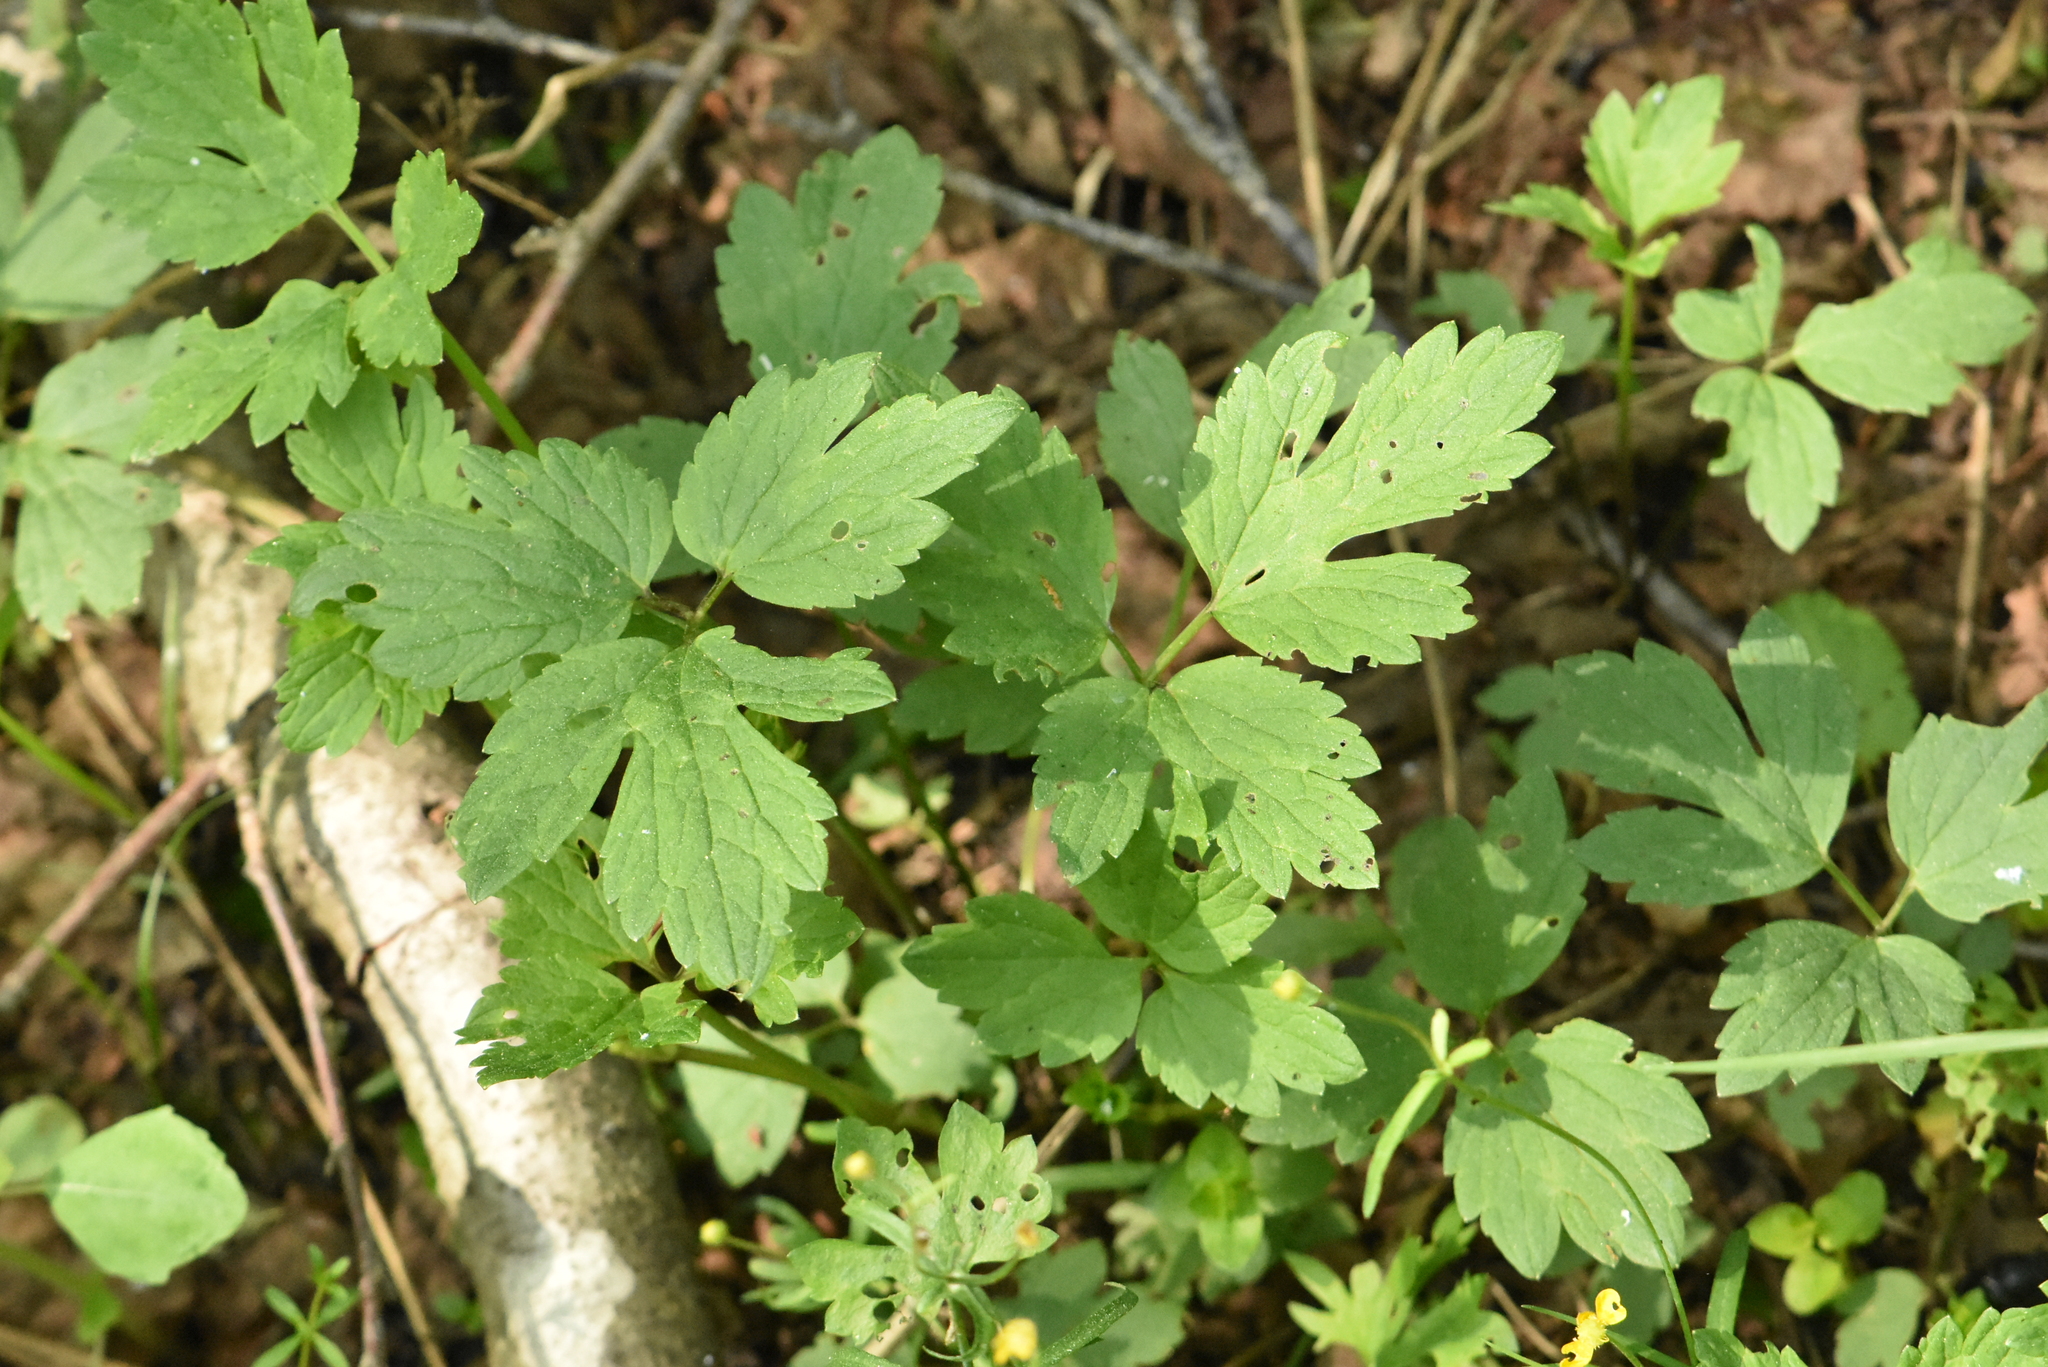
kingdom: Plantae
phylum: Tracheophyta
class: Magnoliopsida
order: Ranunculales
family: Ranunculaceae
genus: Ranunculus
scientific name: Ranunculus repens
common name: Creeping buttercup
